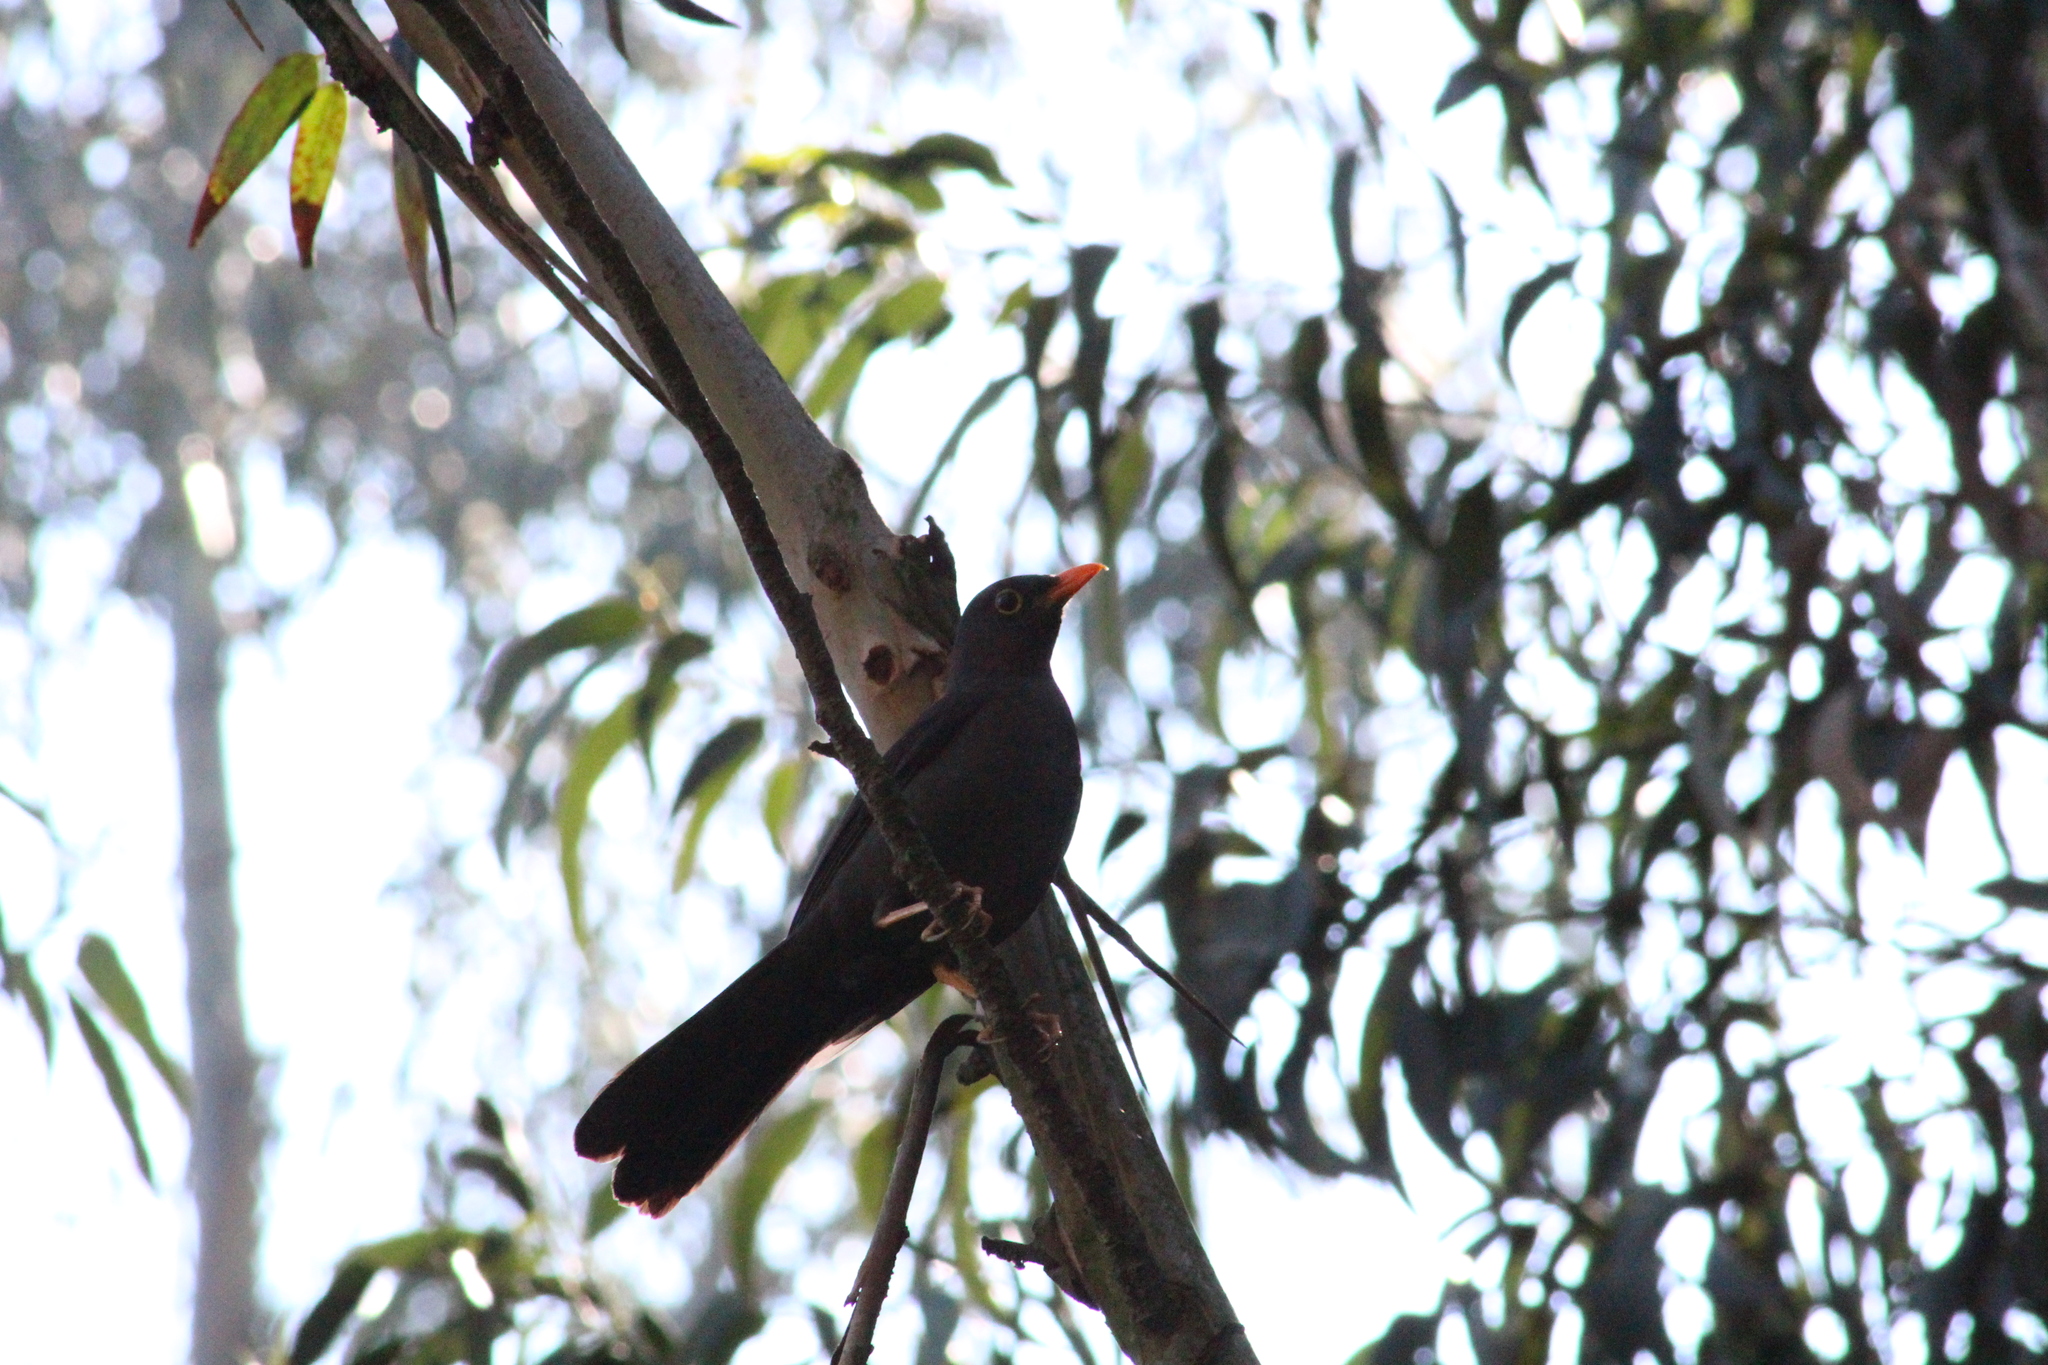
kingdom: Animalia
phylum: Chordata
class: Aves
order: Passeriformes
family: Turdidae
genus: Turdus
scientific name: Turdus fuscater
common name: Great thrush
